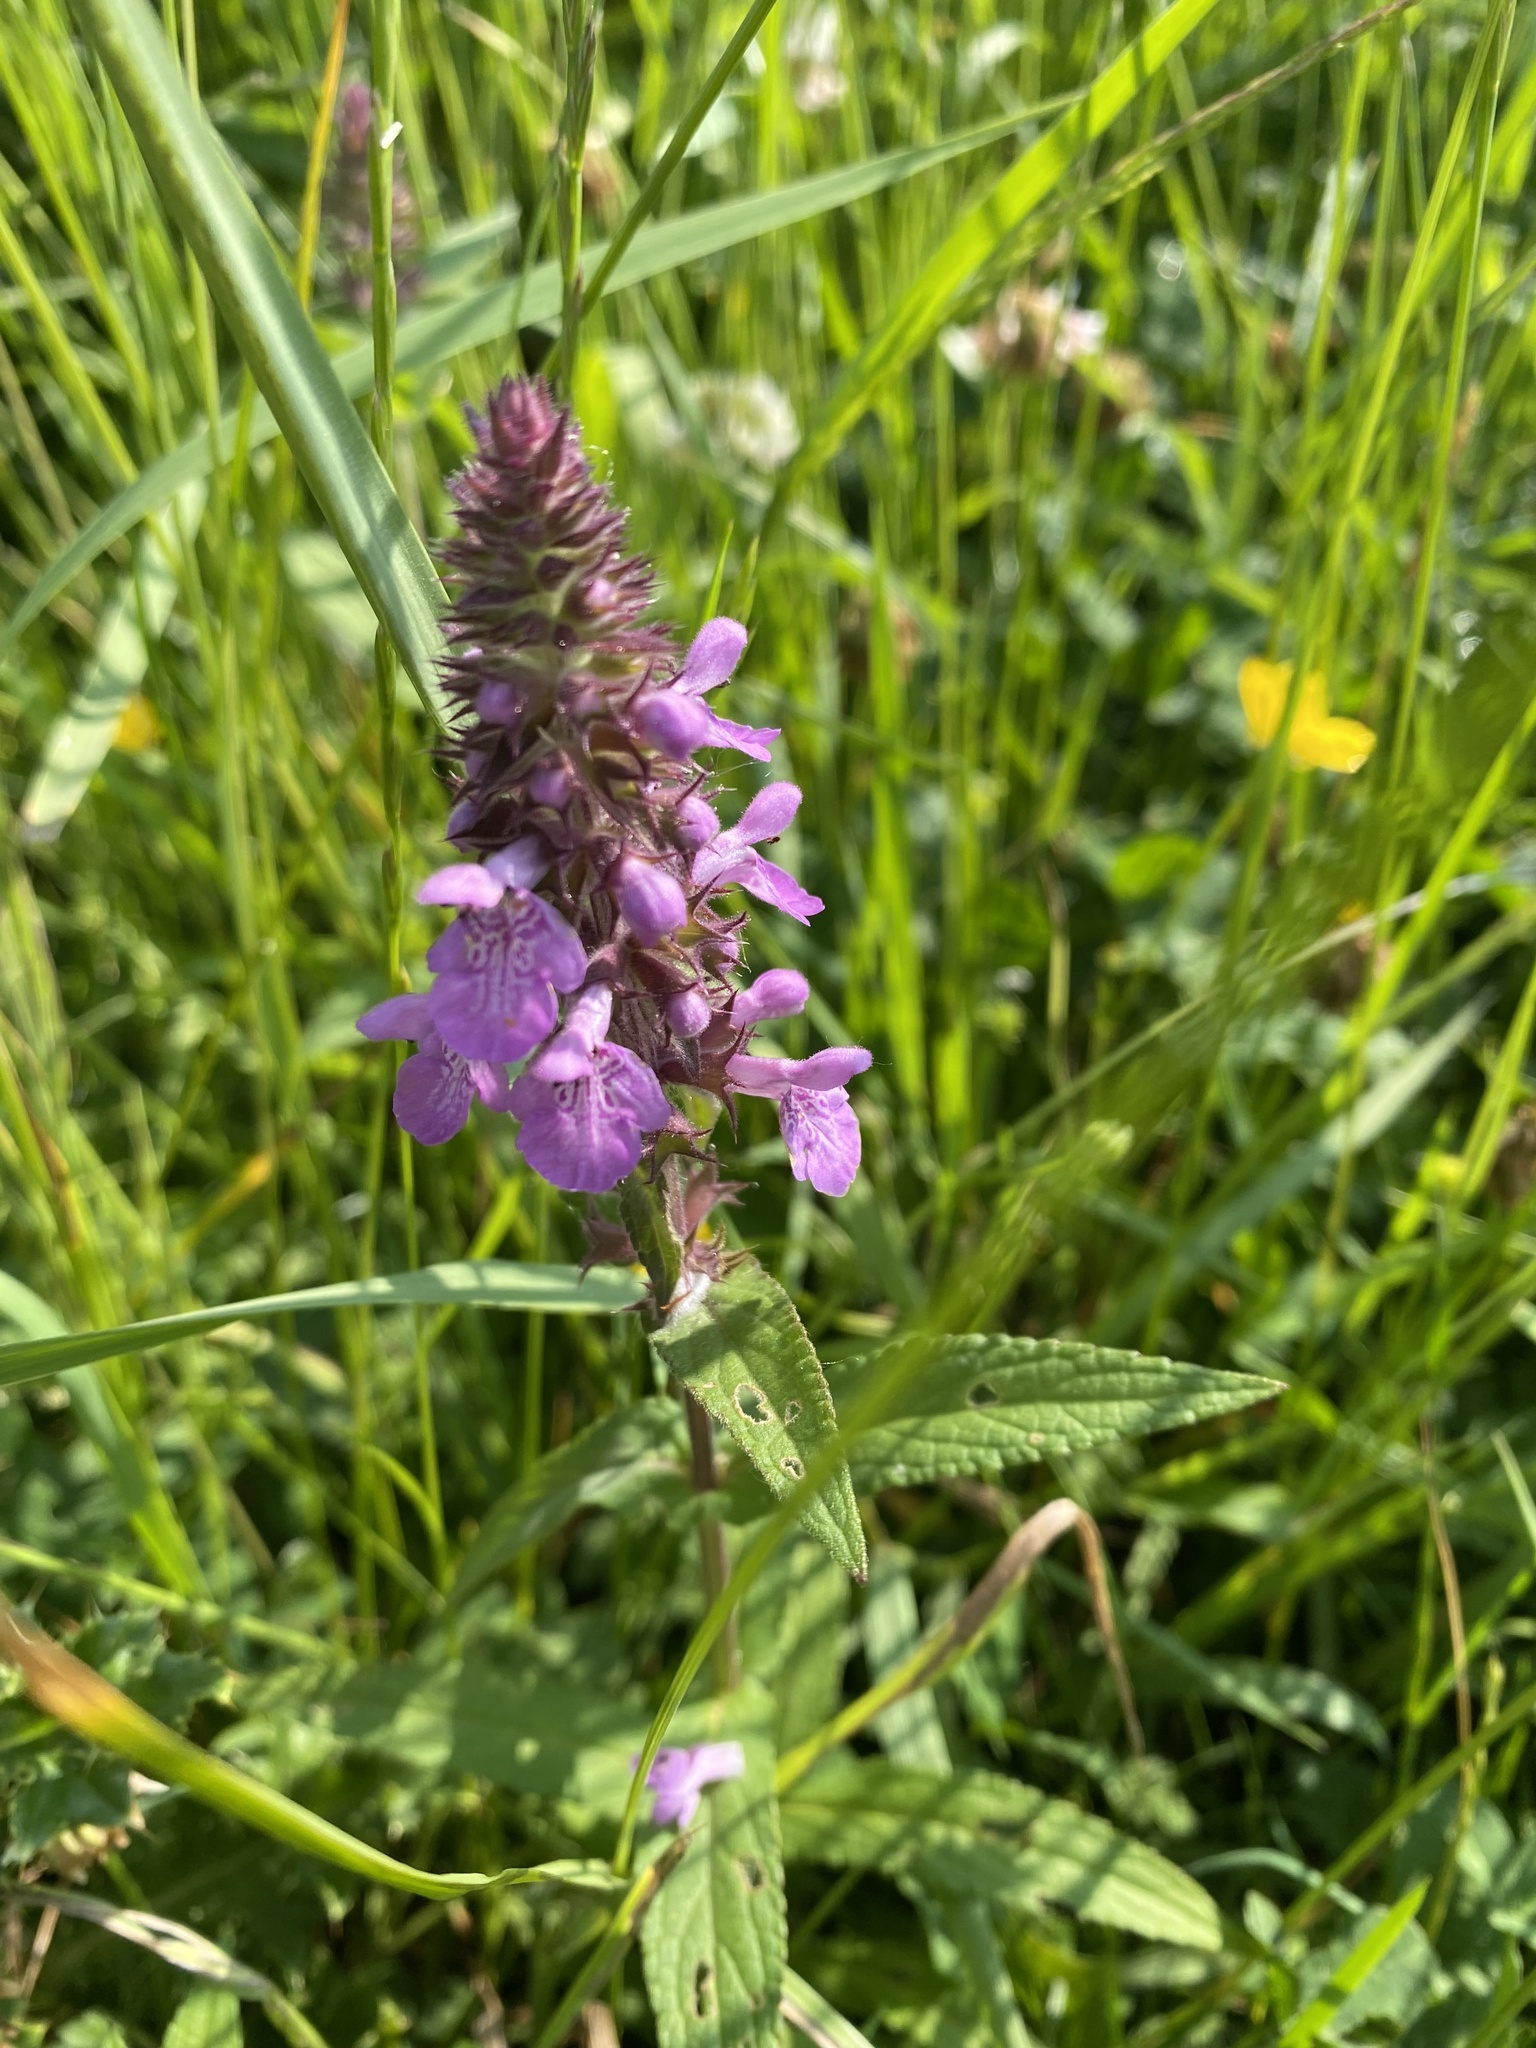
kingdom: Plantae
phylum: Tracheophyta
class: Magnoliopsida
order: Lamiales
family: Lamiaceae
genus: Stachys
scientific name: Stachys palustris
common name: Marsh woundwort
